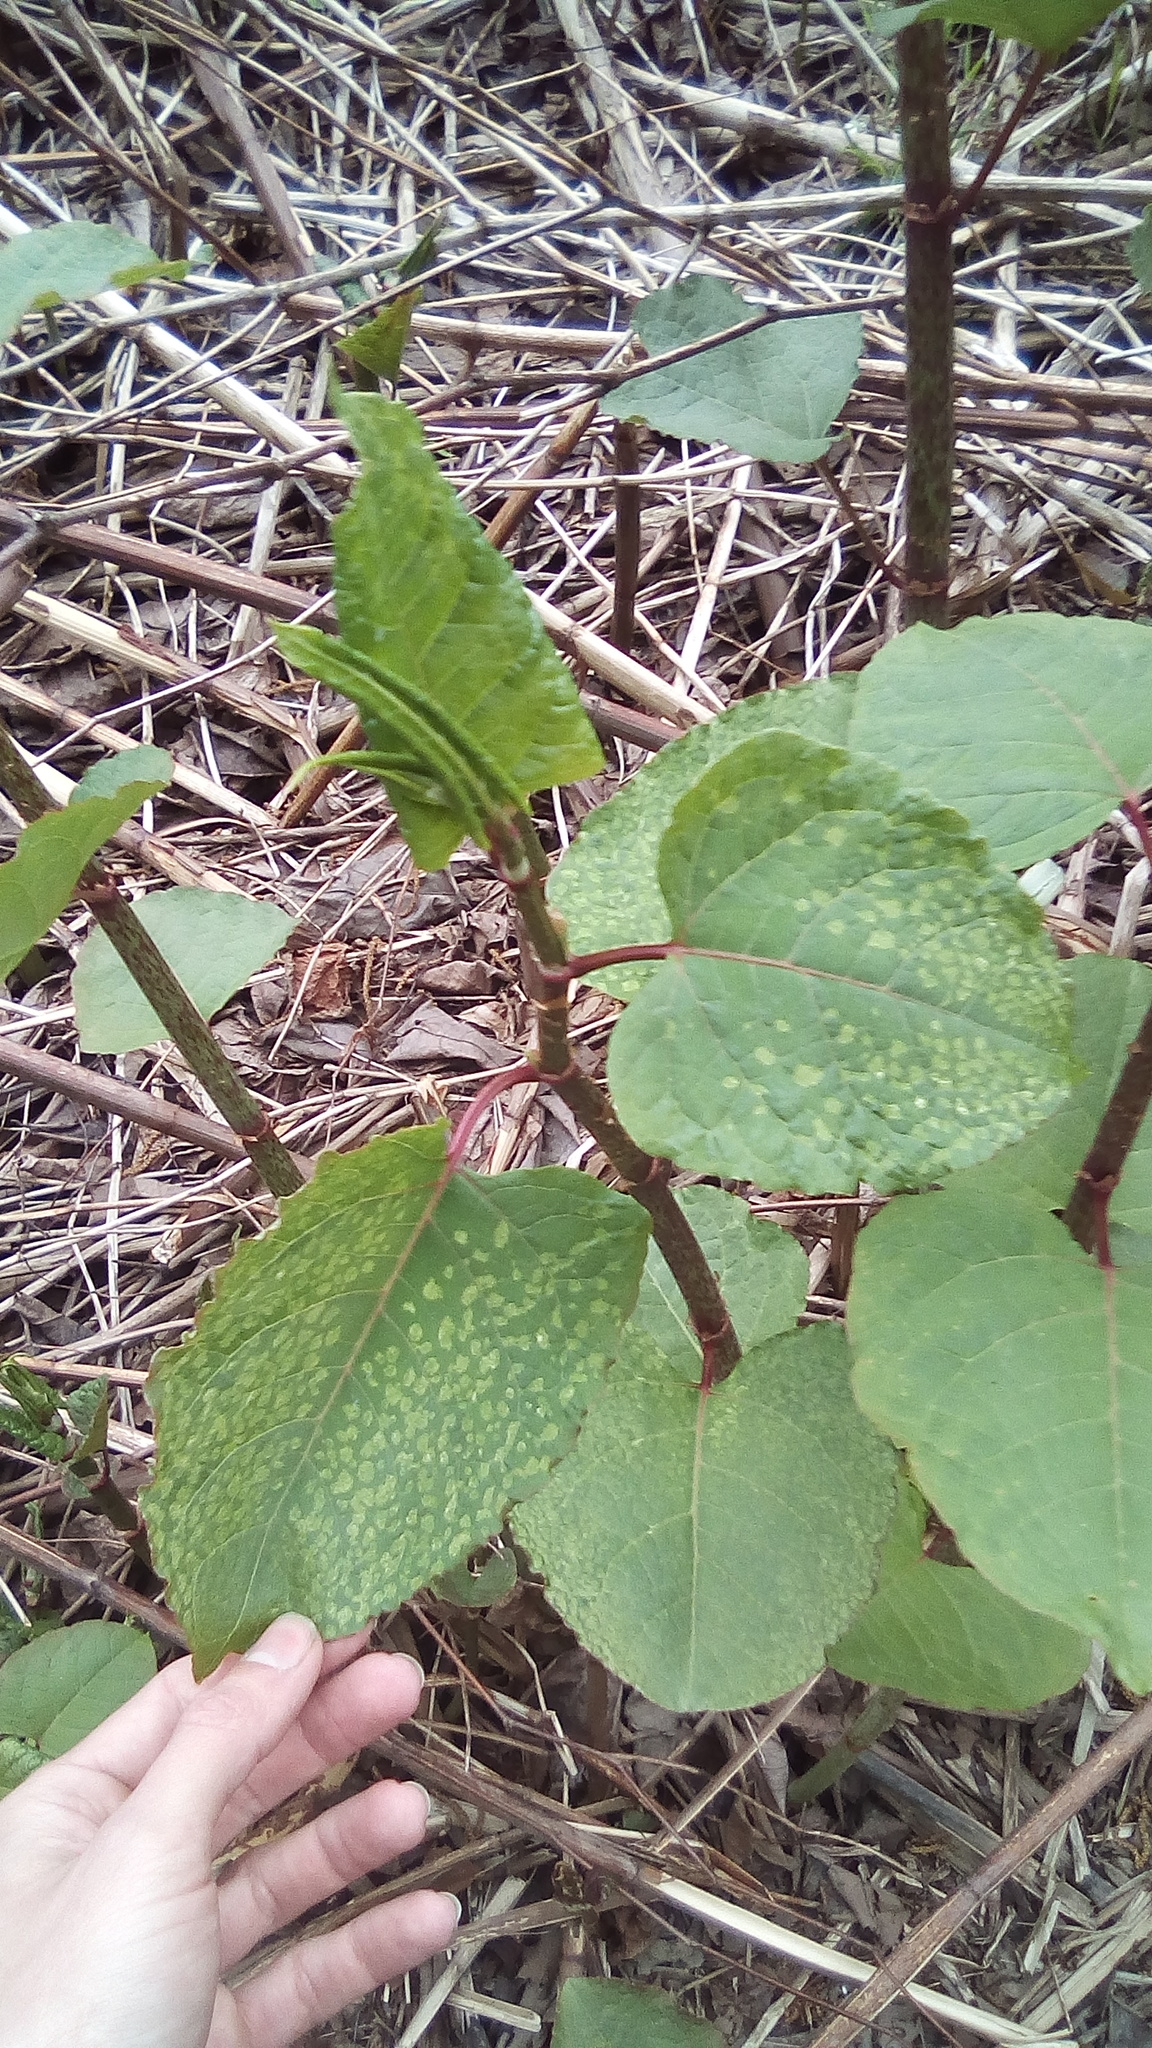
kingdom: Plantae
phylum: Tracheophyta
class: Magnoliopsida
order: Caryophyllales
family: Polygonaceae
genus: Reynoutria
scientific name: Reynoutria bohemica
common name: Bohemian knotweed
